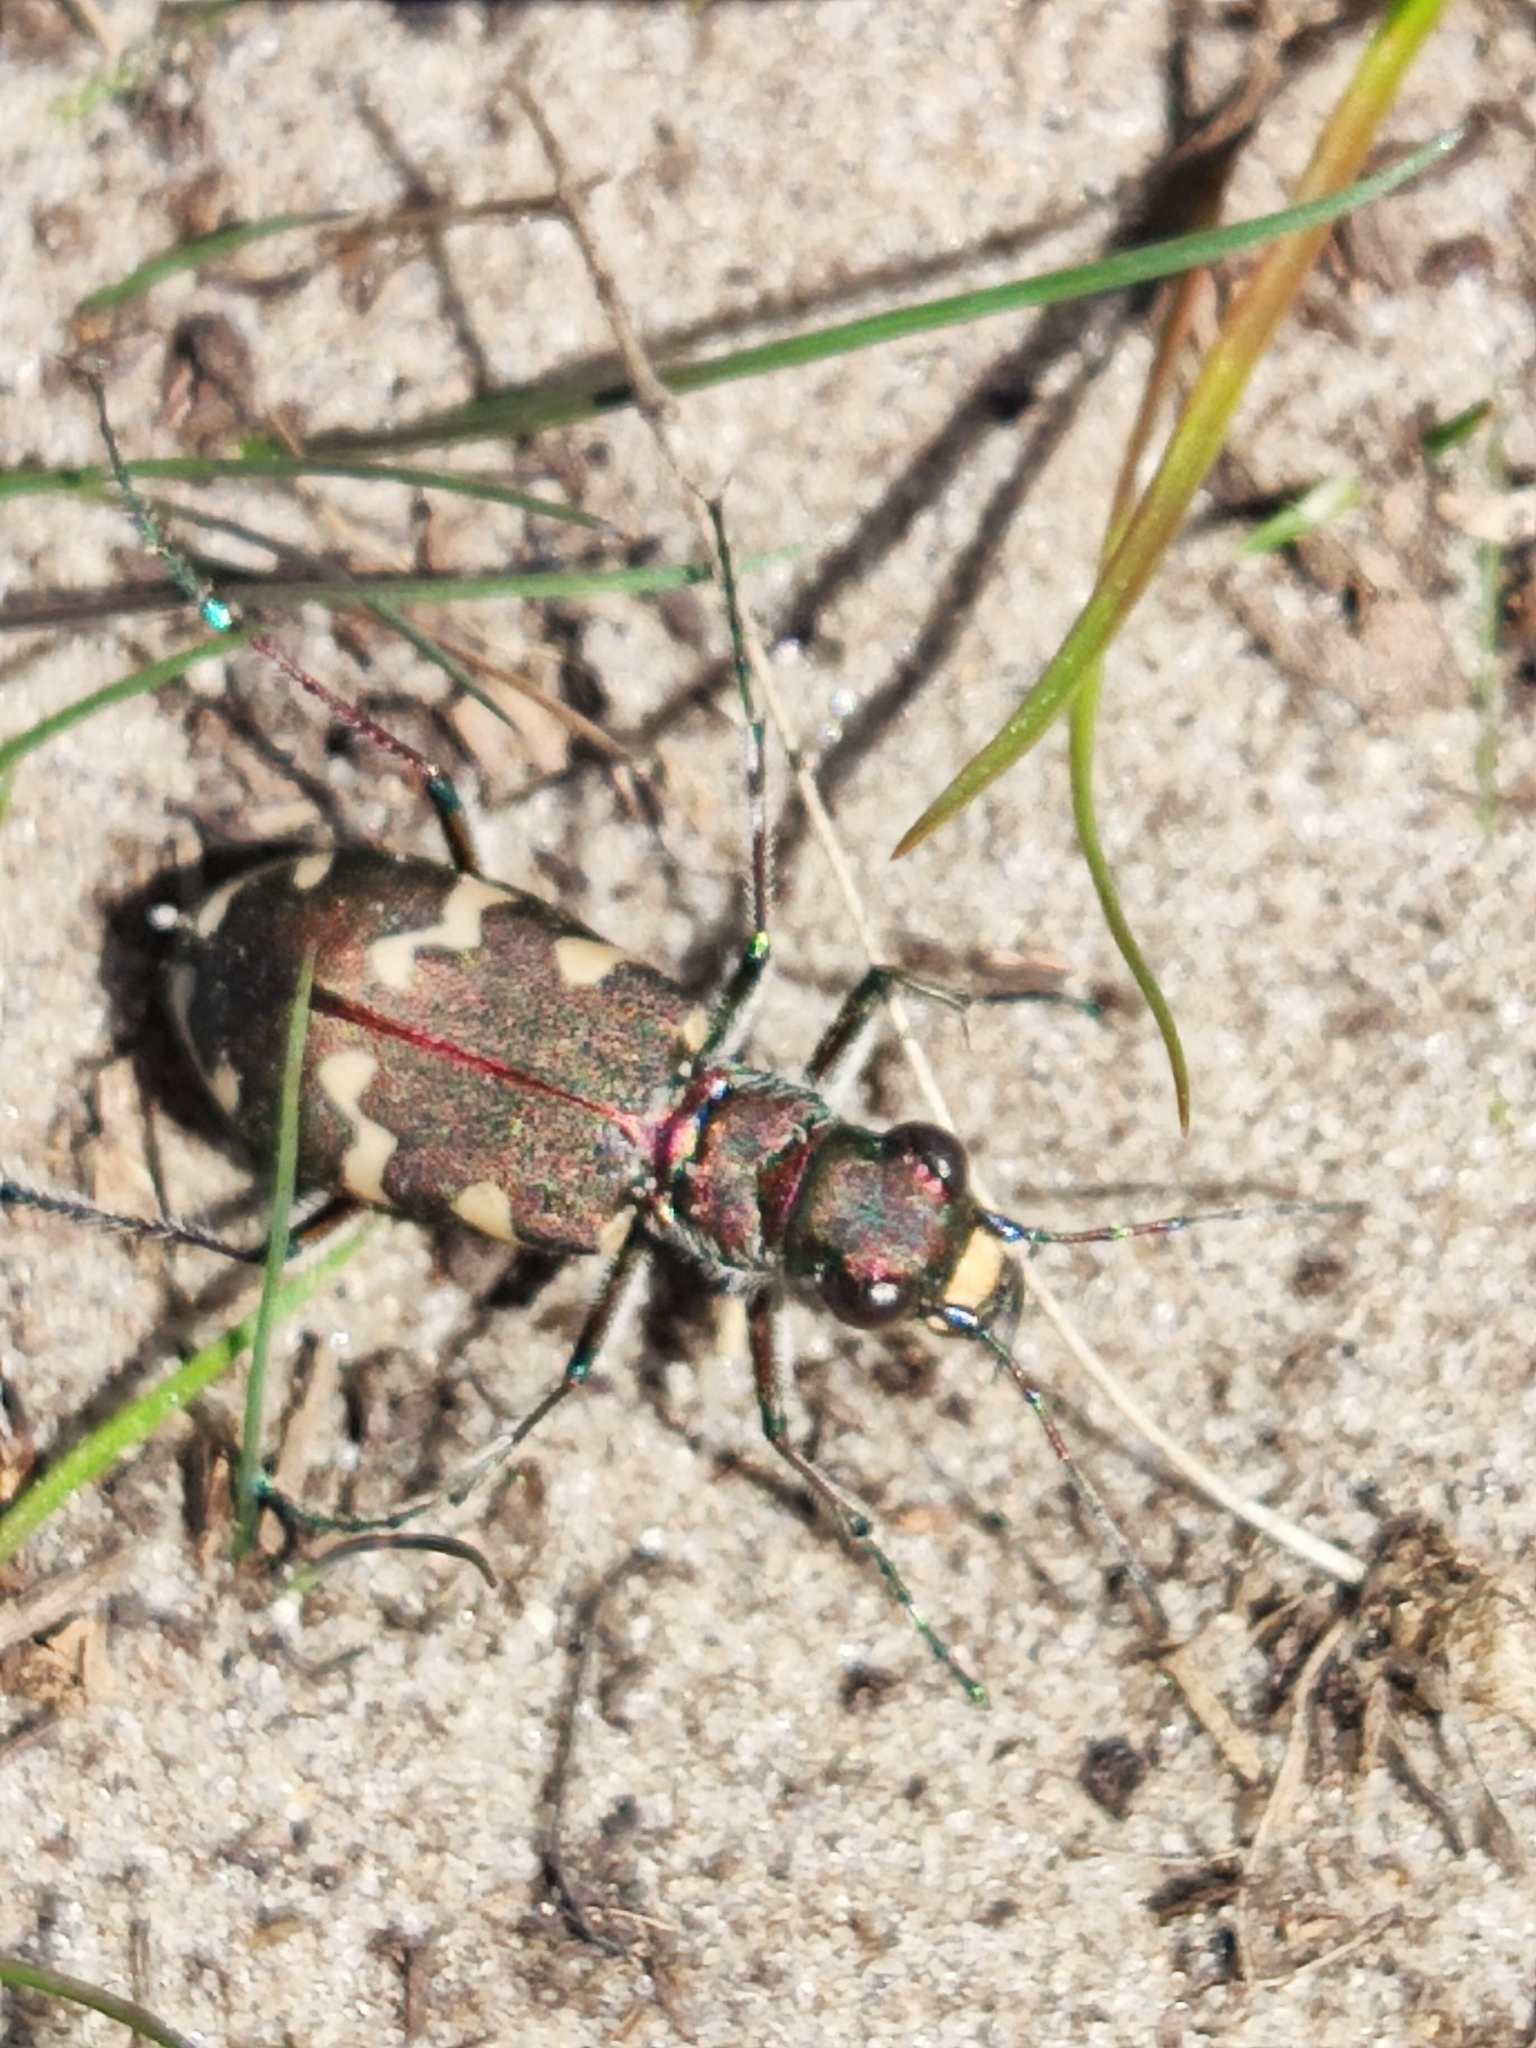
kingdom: Animalia
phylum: Arthropoda
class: Insecta
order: Coleoptera
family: Carabidae
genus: Cicindela
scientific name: Cicindela hybrida
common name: Northern dune tiger beetle
